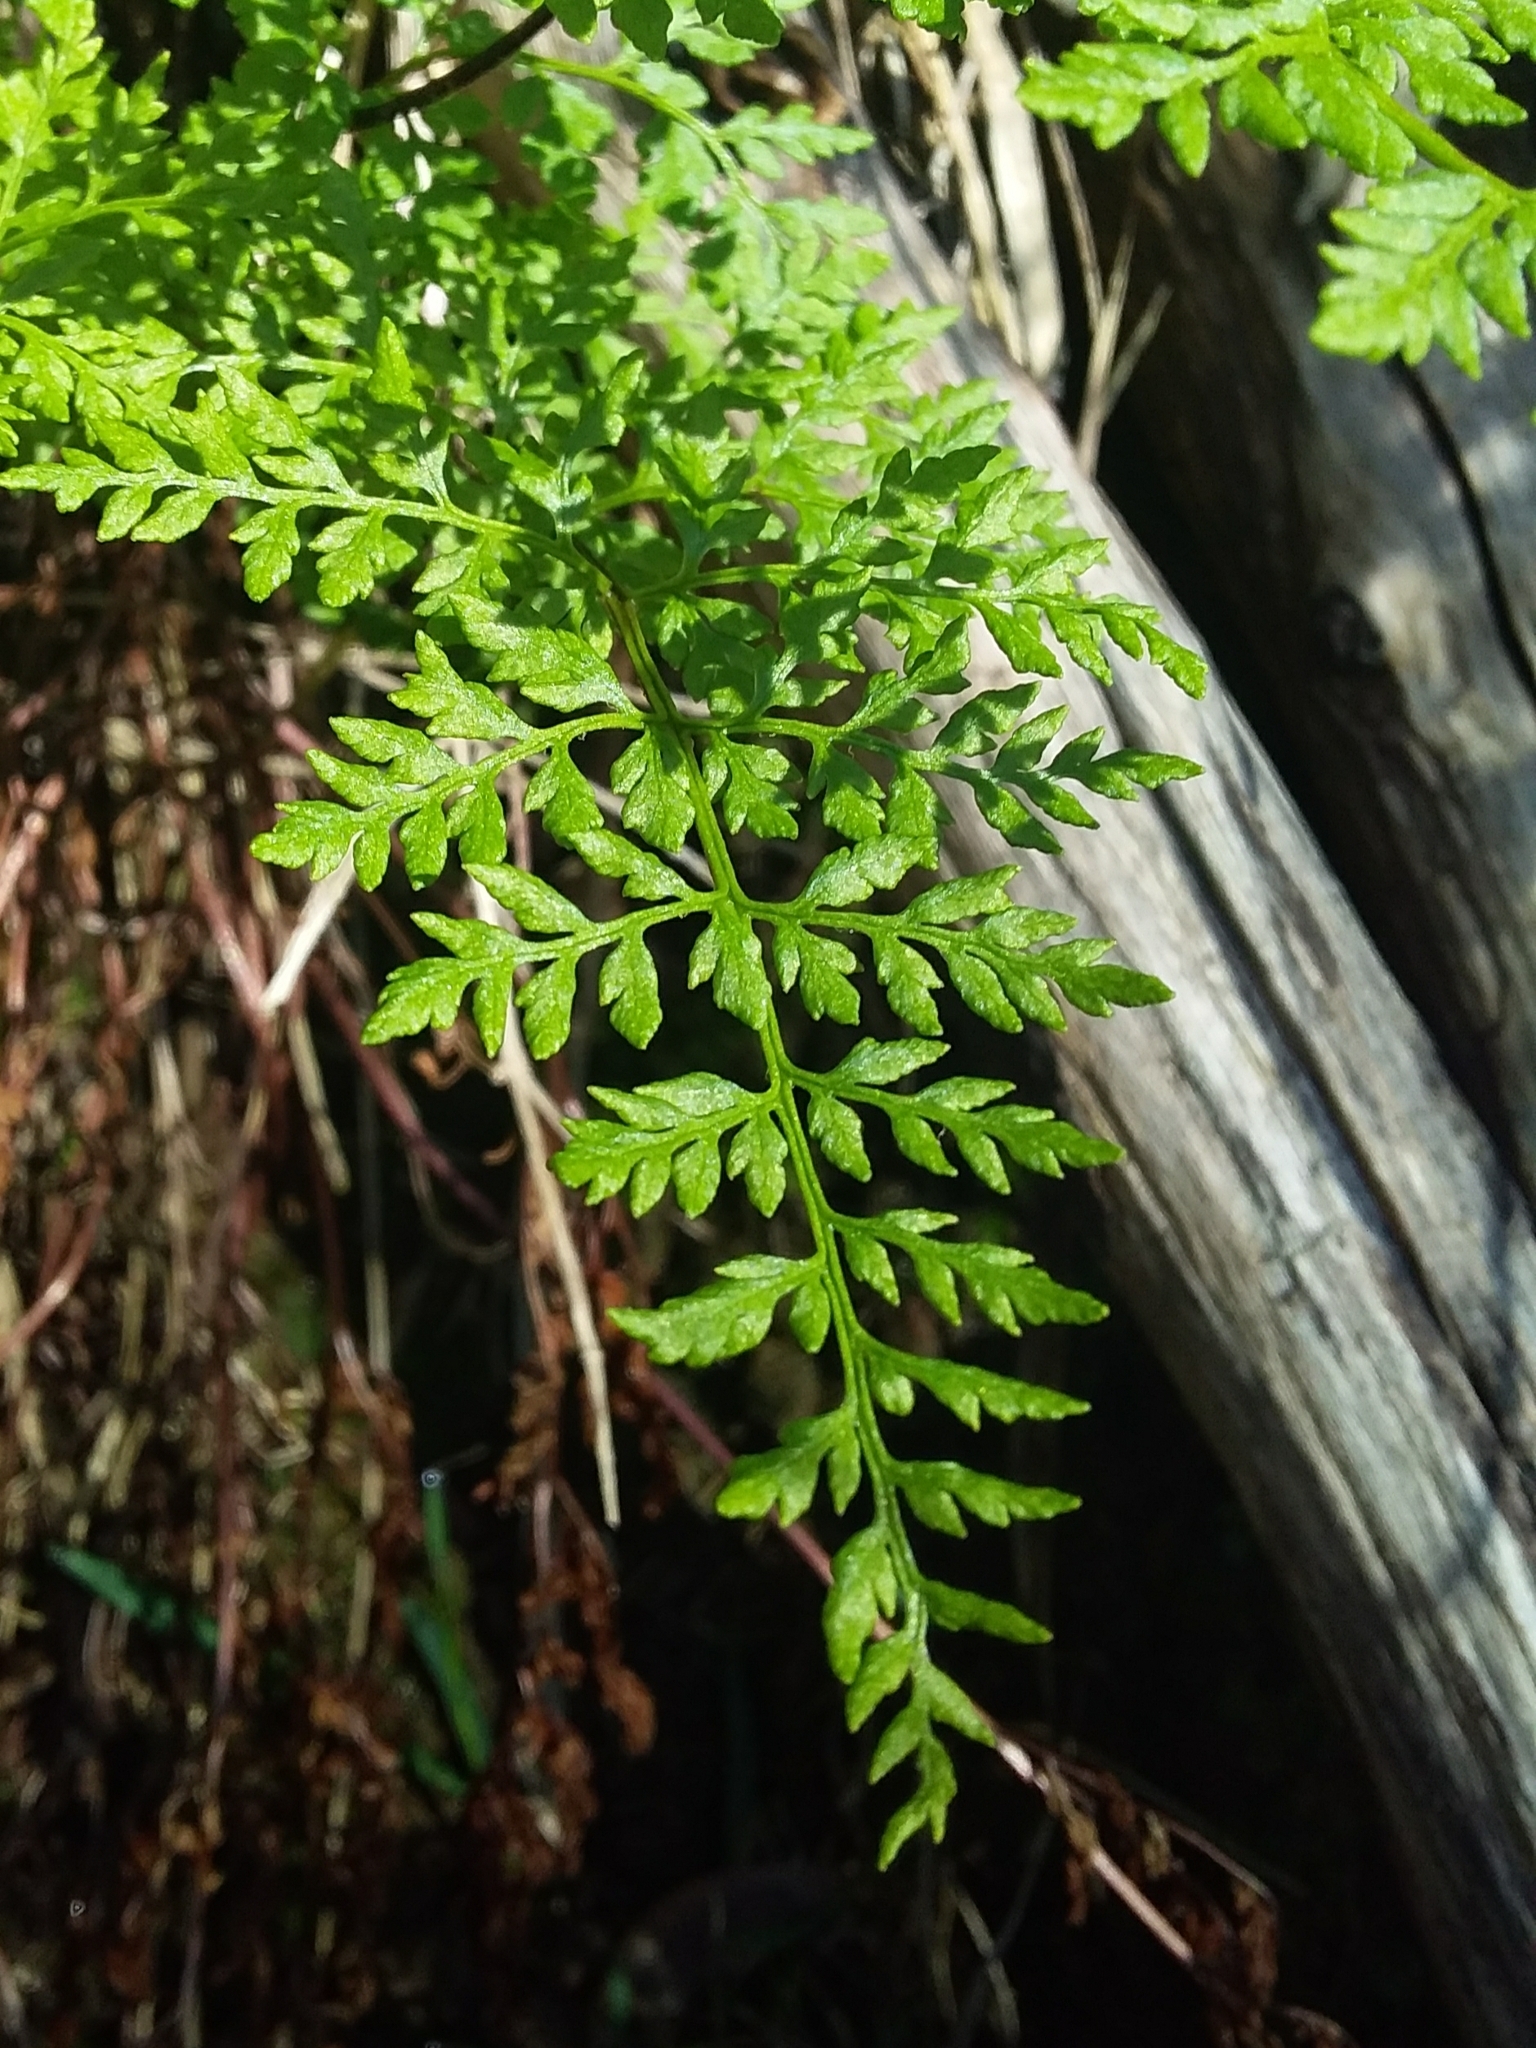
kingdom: Plantae
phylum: Tracheophyta
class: Polypodiopsida
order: Polypodiales
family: Pteridaceae
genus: Cheilanthes
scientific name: Cheilanthes austrotenuifolia
